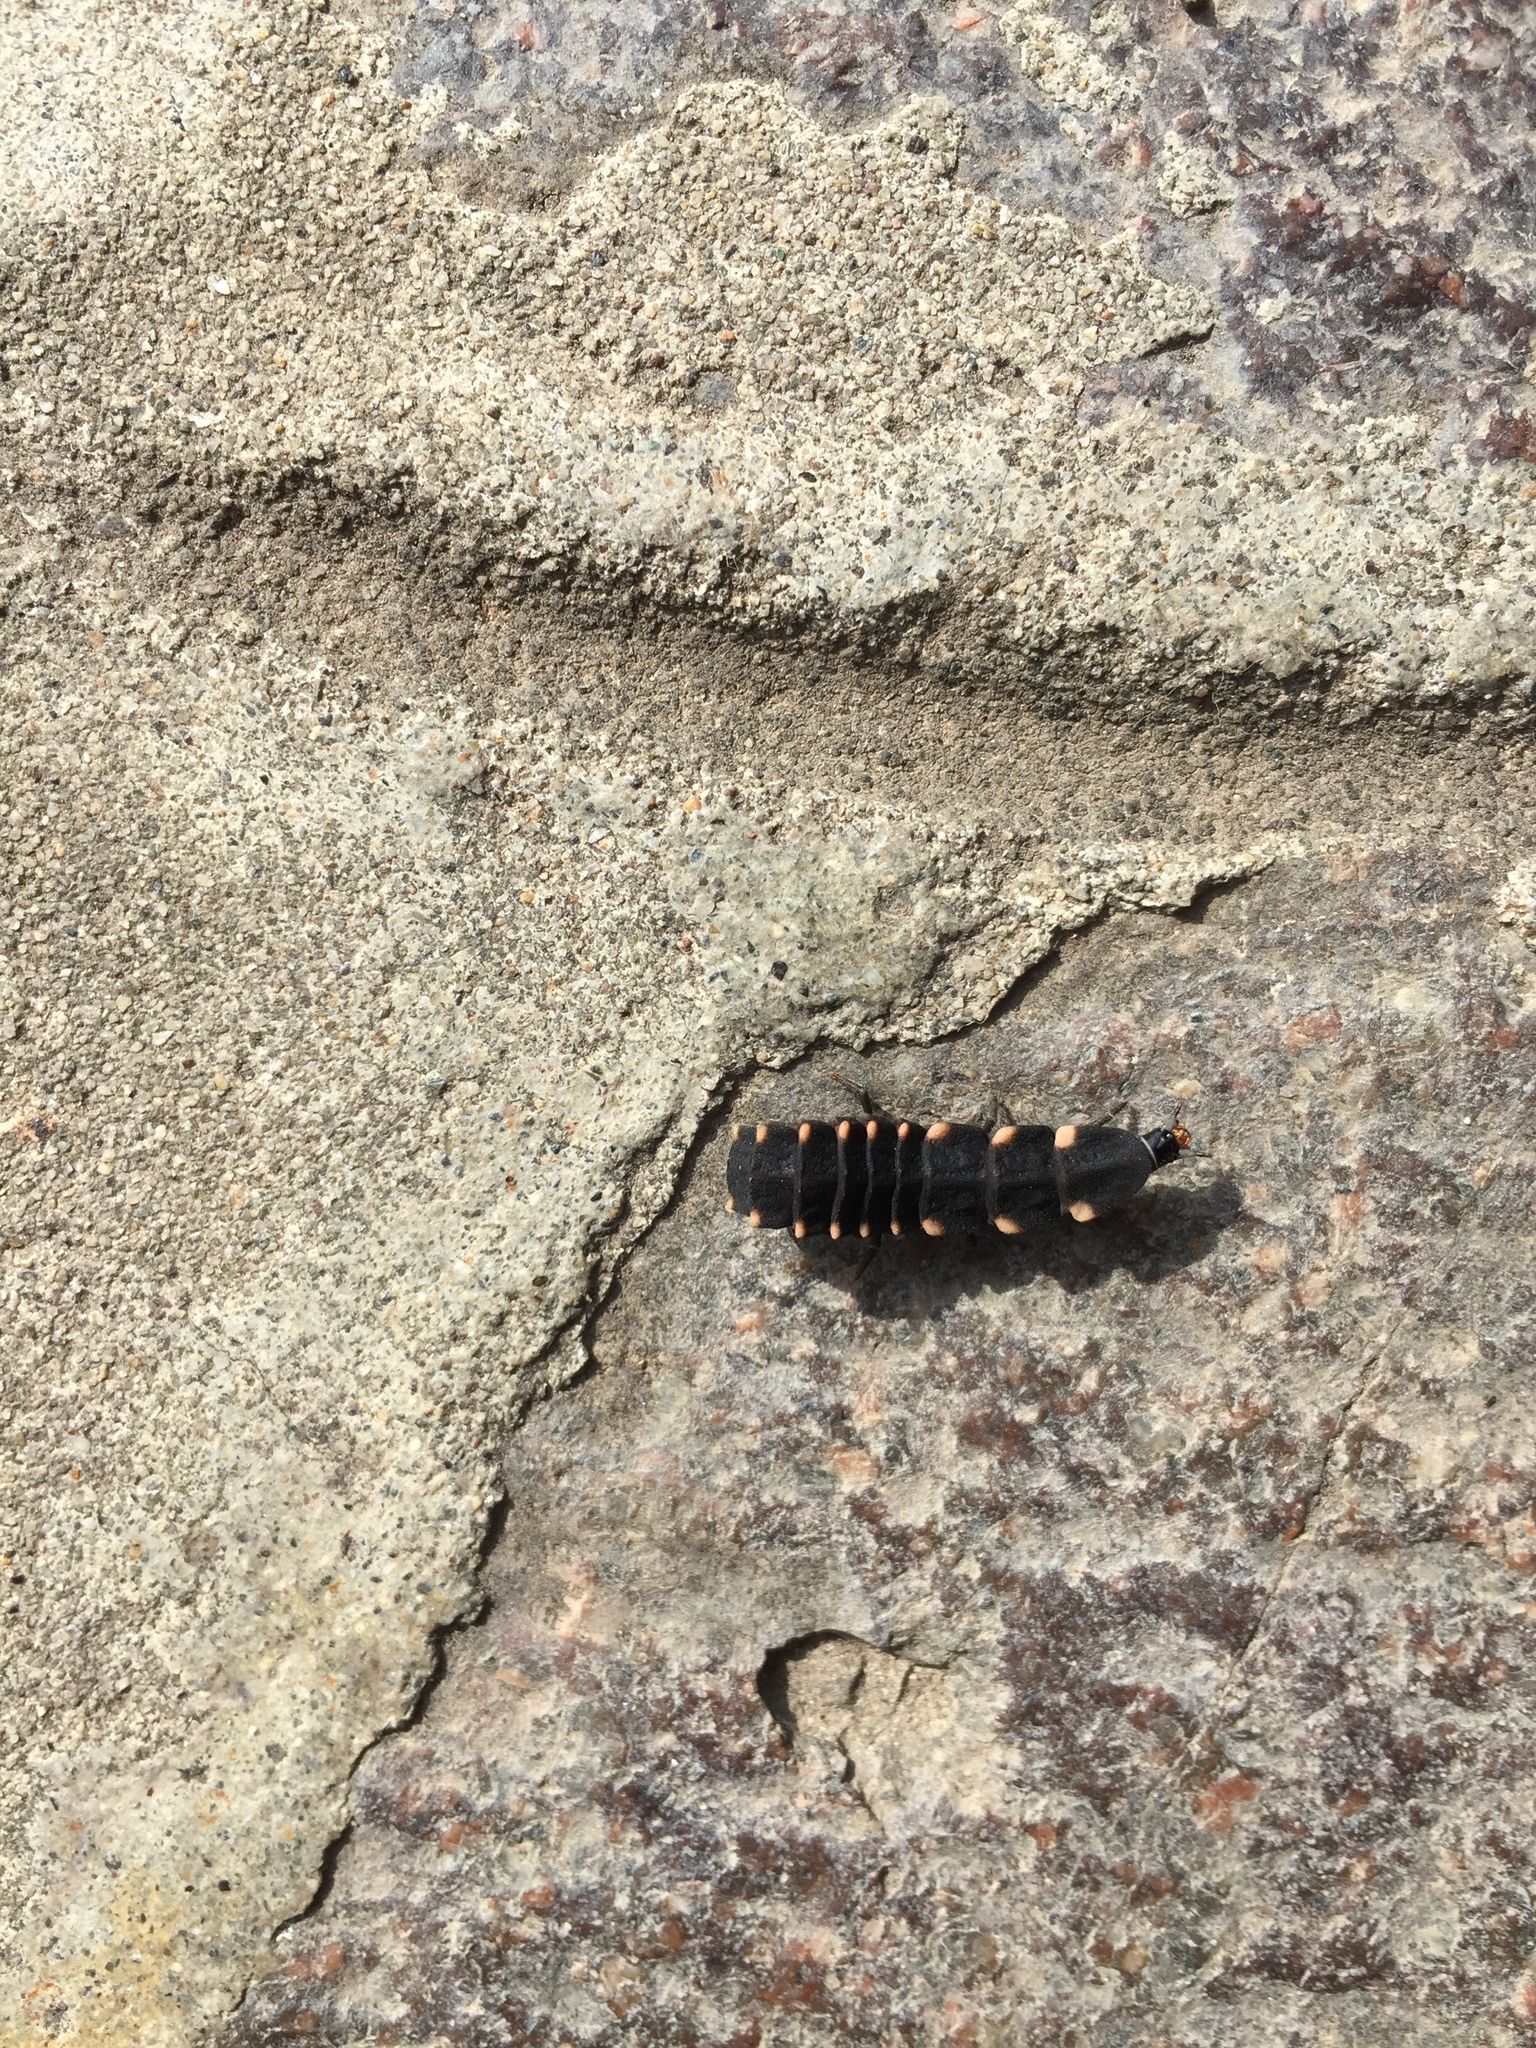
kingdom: Animalia
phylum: Arthropoda
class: Insecta
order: Coleoptera
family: Lampyridae
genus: Lampyris
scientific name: Lampyris noctiluca
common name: Glow-worm
